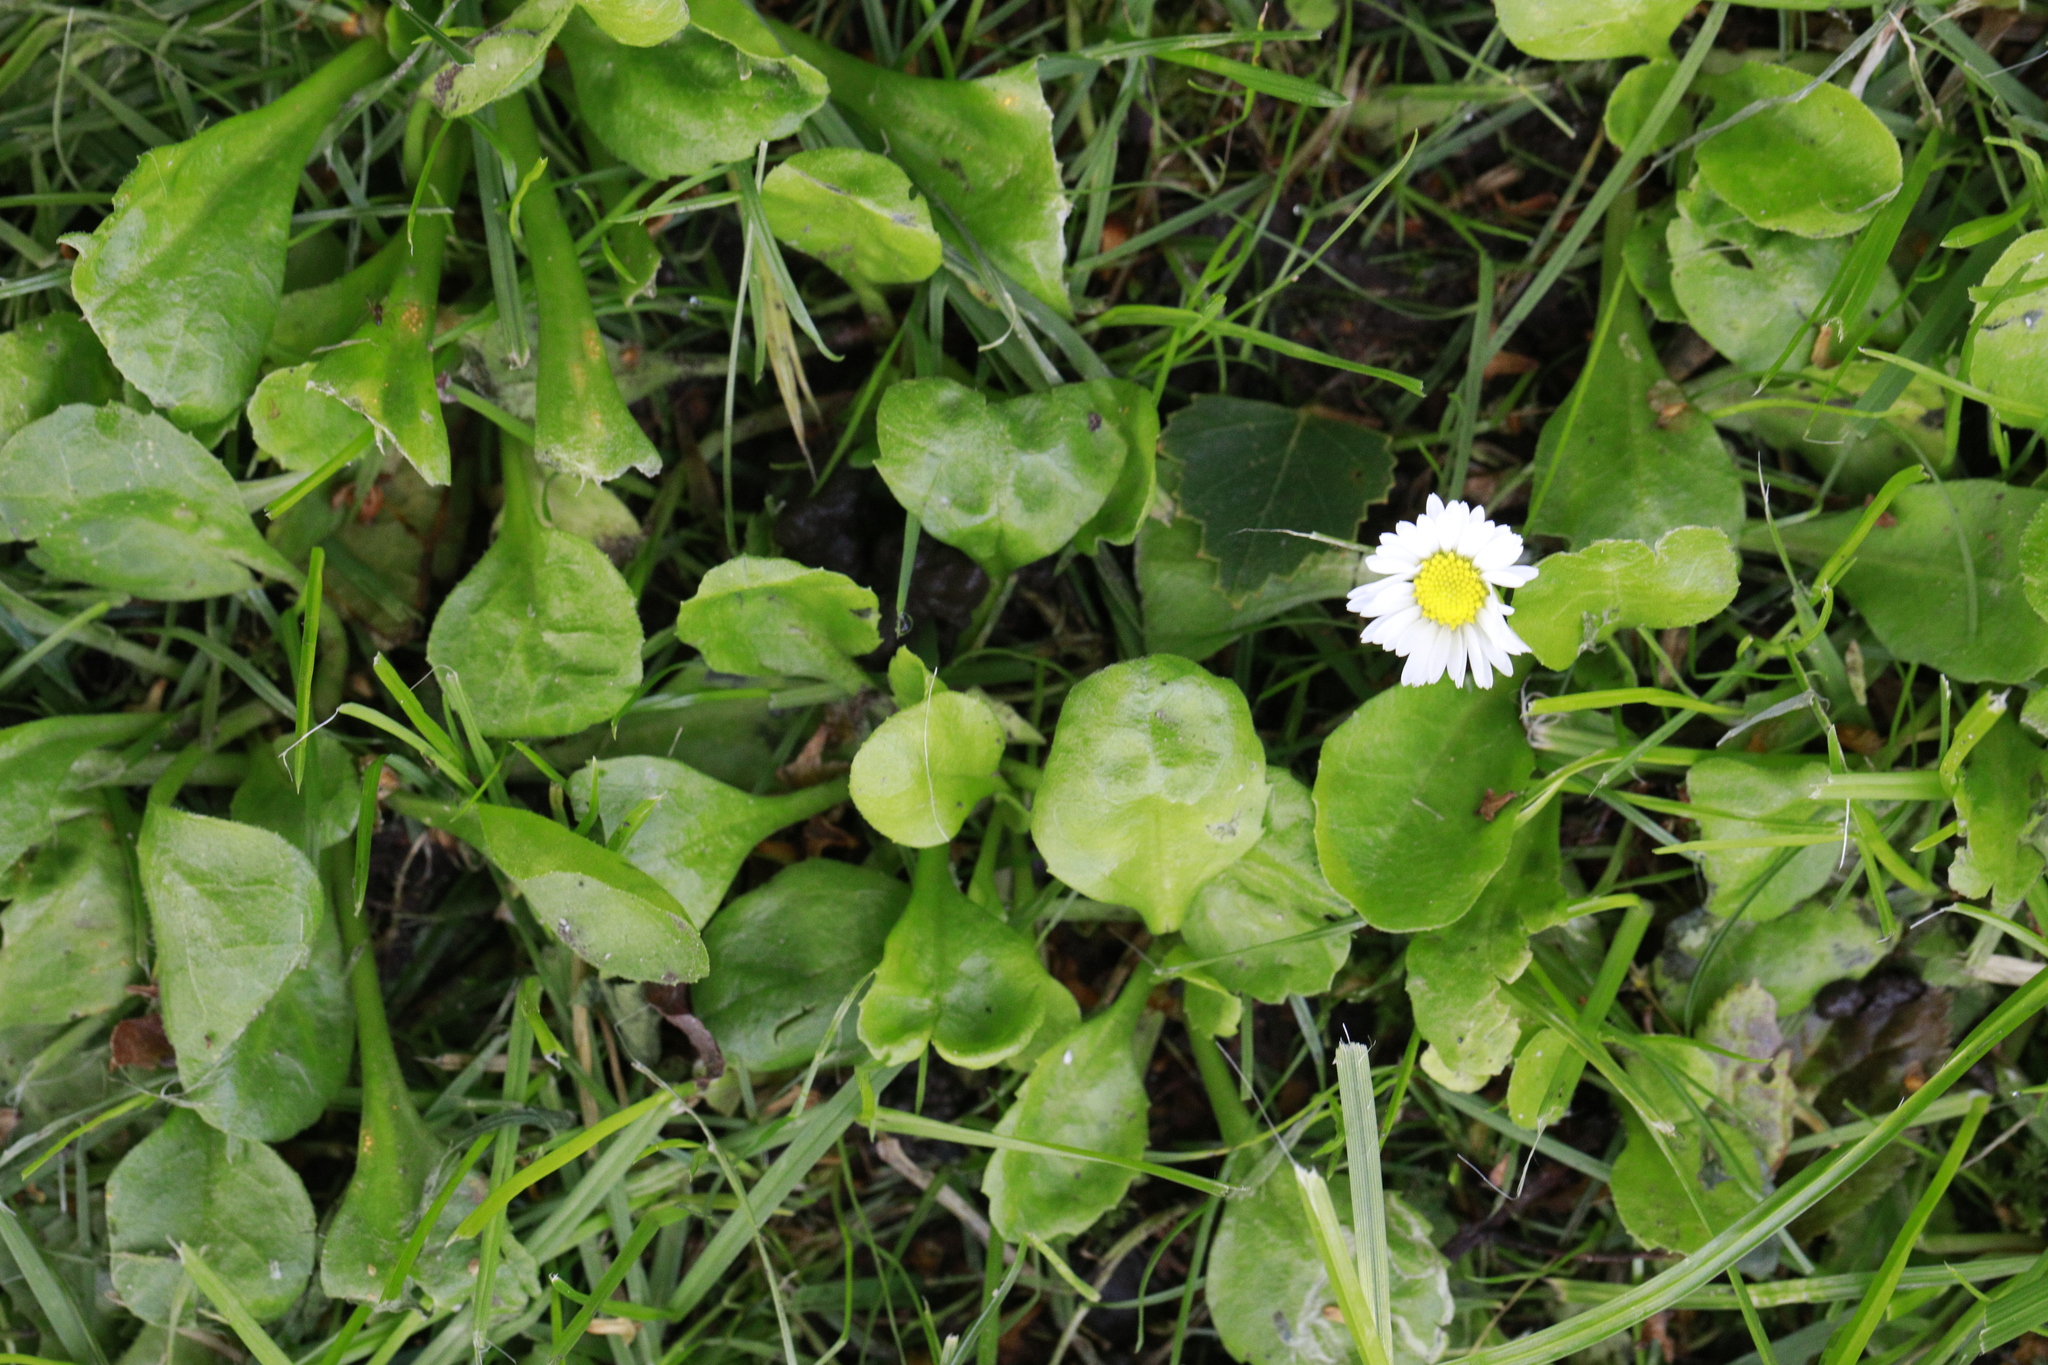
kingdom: Plantae
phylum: Tracheophyta
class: Magnoliopsida
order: Asterales
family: Asteraceae
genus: Bellis
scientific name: Bellis perennis
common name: Lawndaisy
